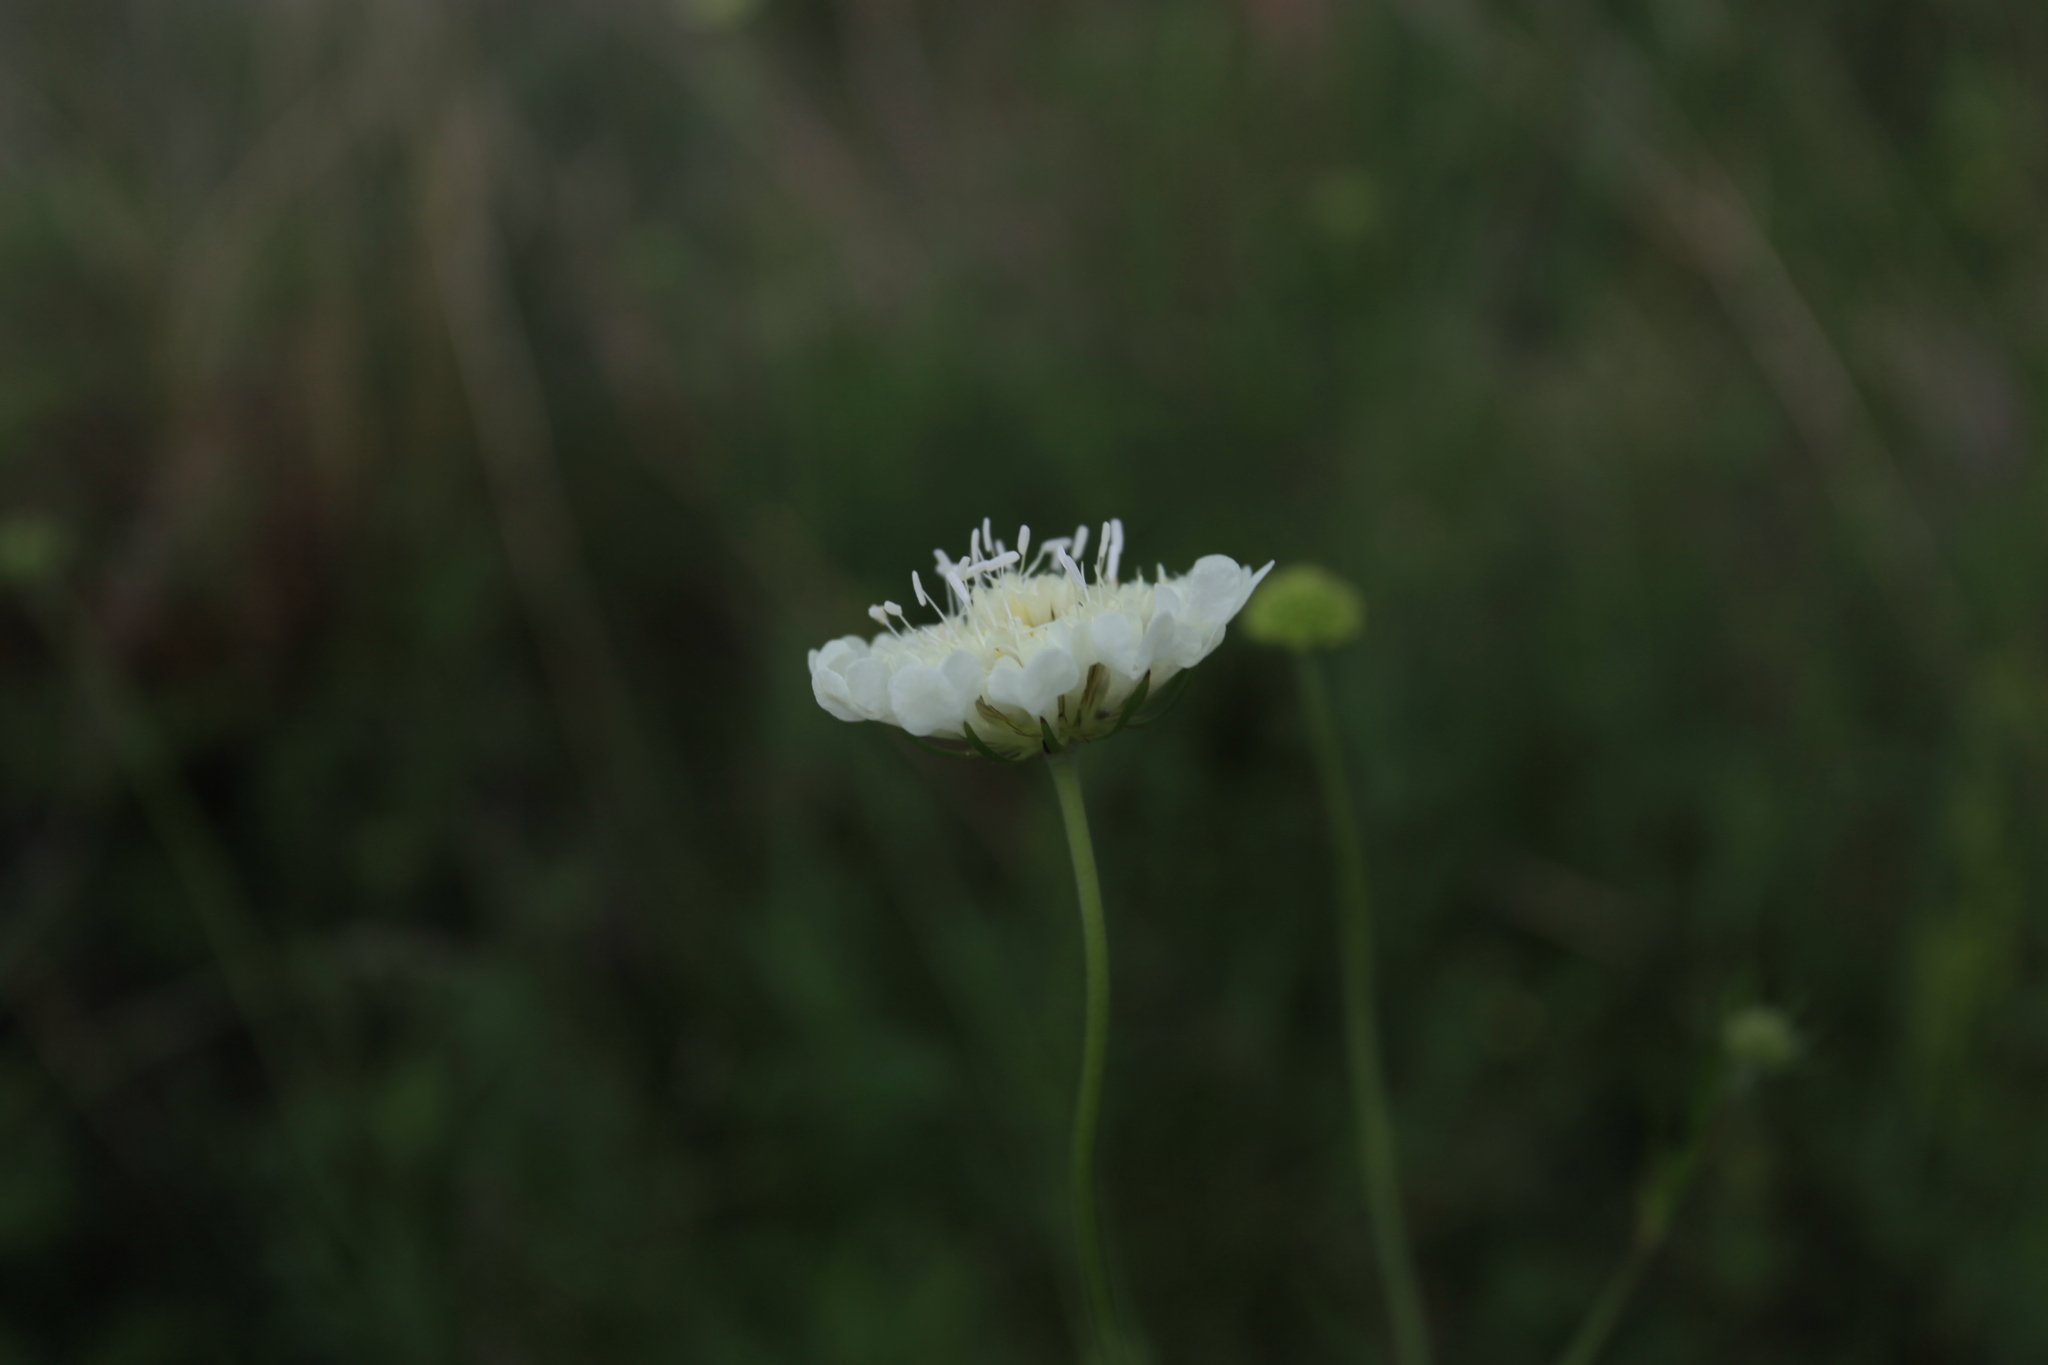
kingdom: Plantae
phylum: Tracheophyta
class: Magnoliopsida
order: Dipsacales
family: Caprifoliaceae
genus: Scabiosa
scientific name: Scabiosa ochroleuca
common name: Cream pincushions
